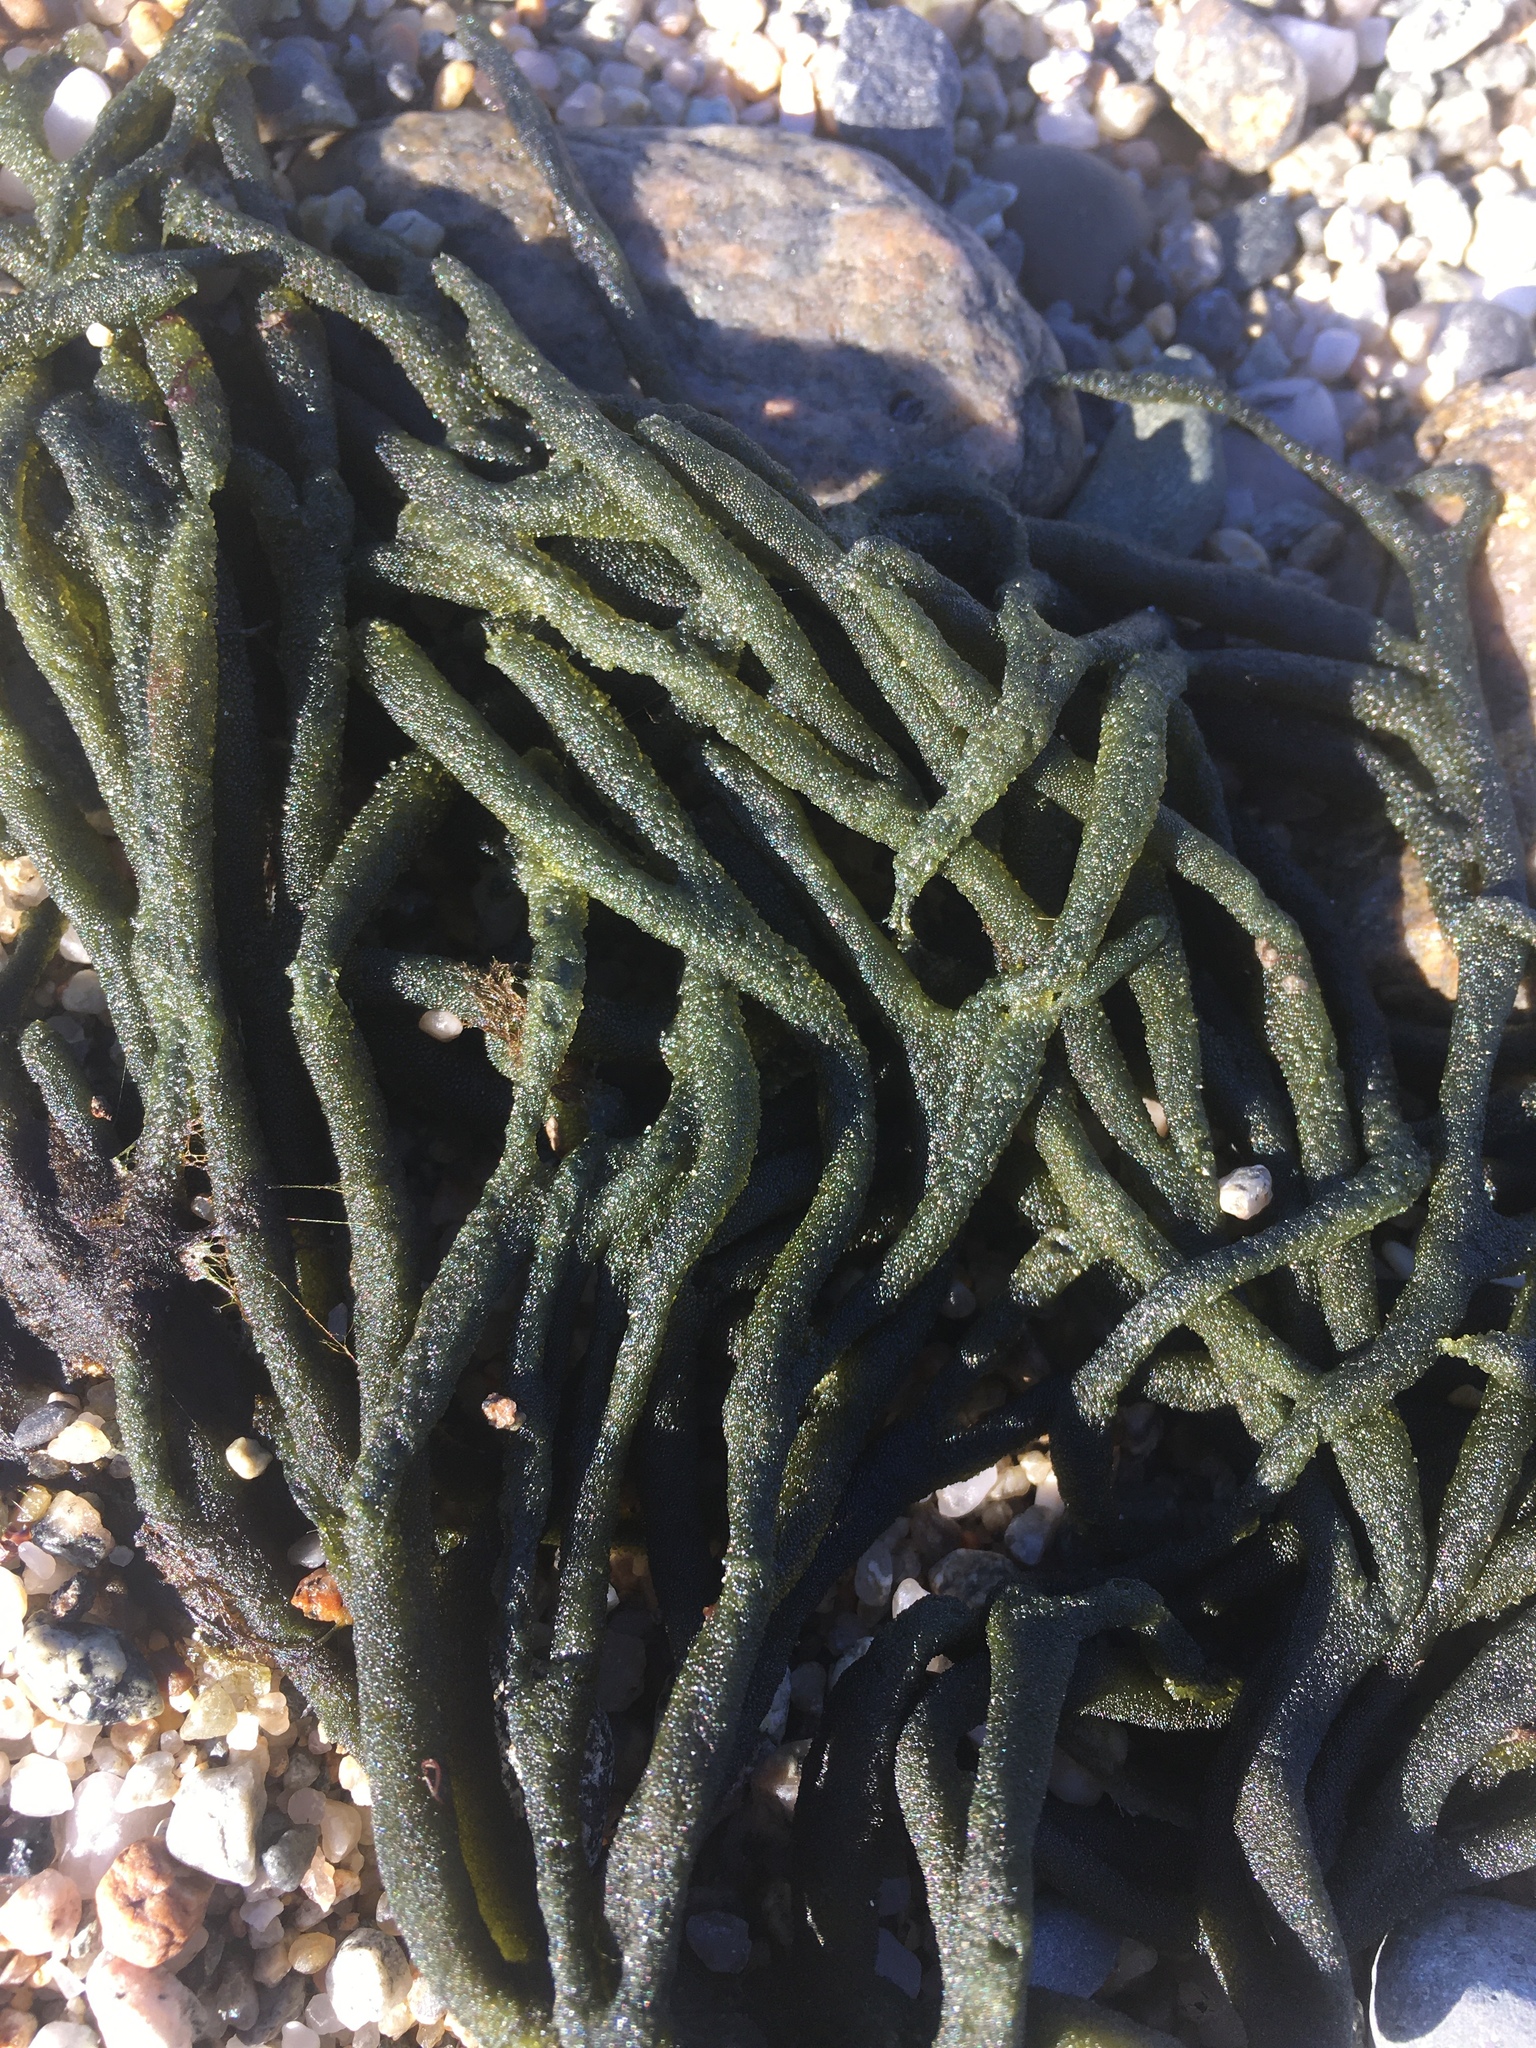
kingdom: Plantae
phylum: Chlorophyta
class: Ulvophyceae
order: Bryopsidales
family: Codiaceae
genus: Codium
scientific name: Codium fragile
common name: Dead man's fingers
